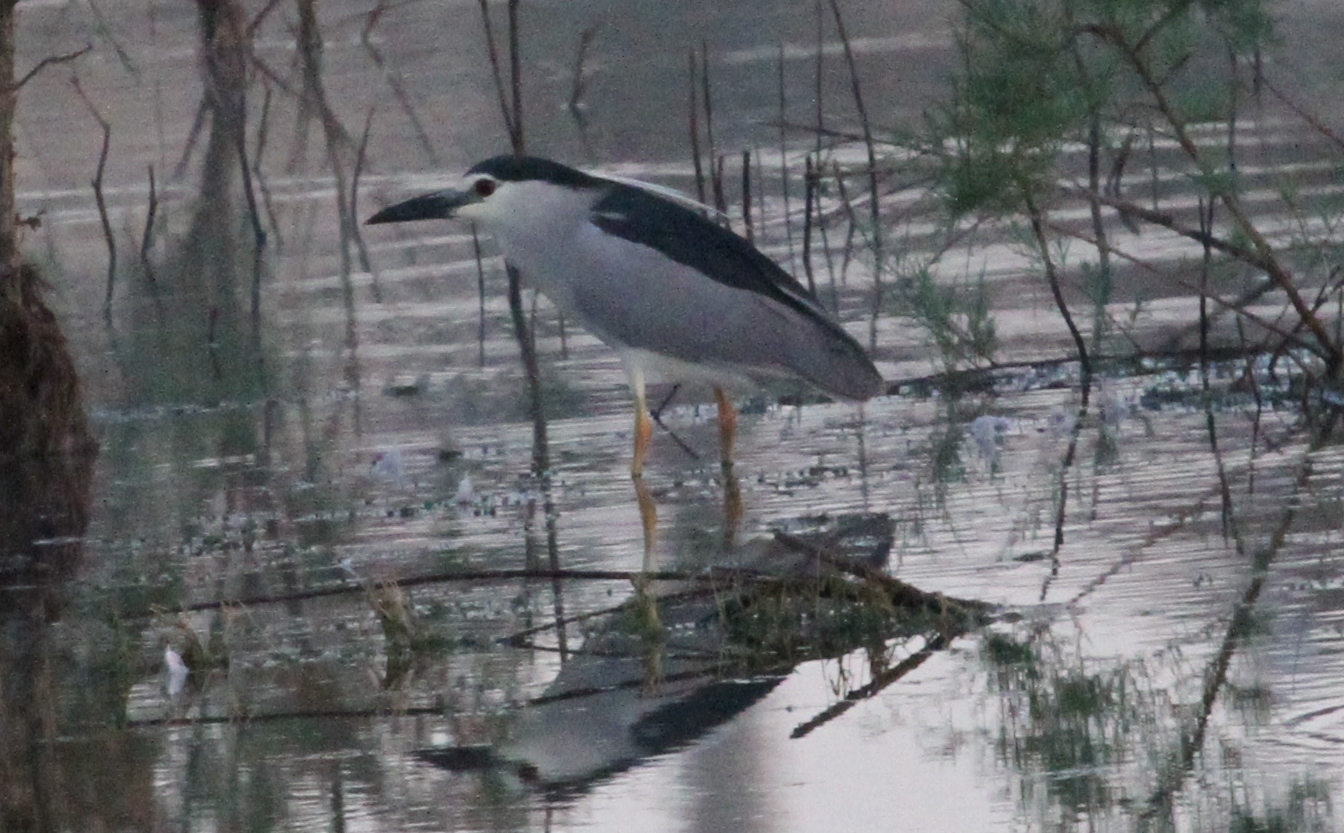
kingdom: Animalia
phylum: Chordata
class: Aves
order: Pelecaniformes
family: Ardeidae
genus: Nycticorax
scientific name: Nycticorax nycticorax
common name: Black-crowned night heron
